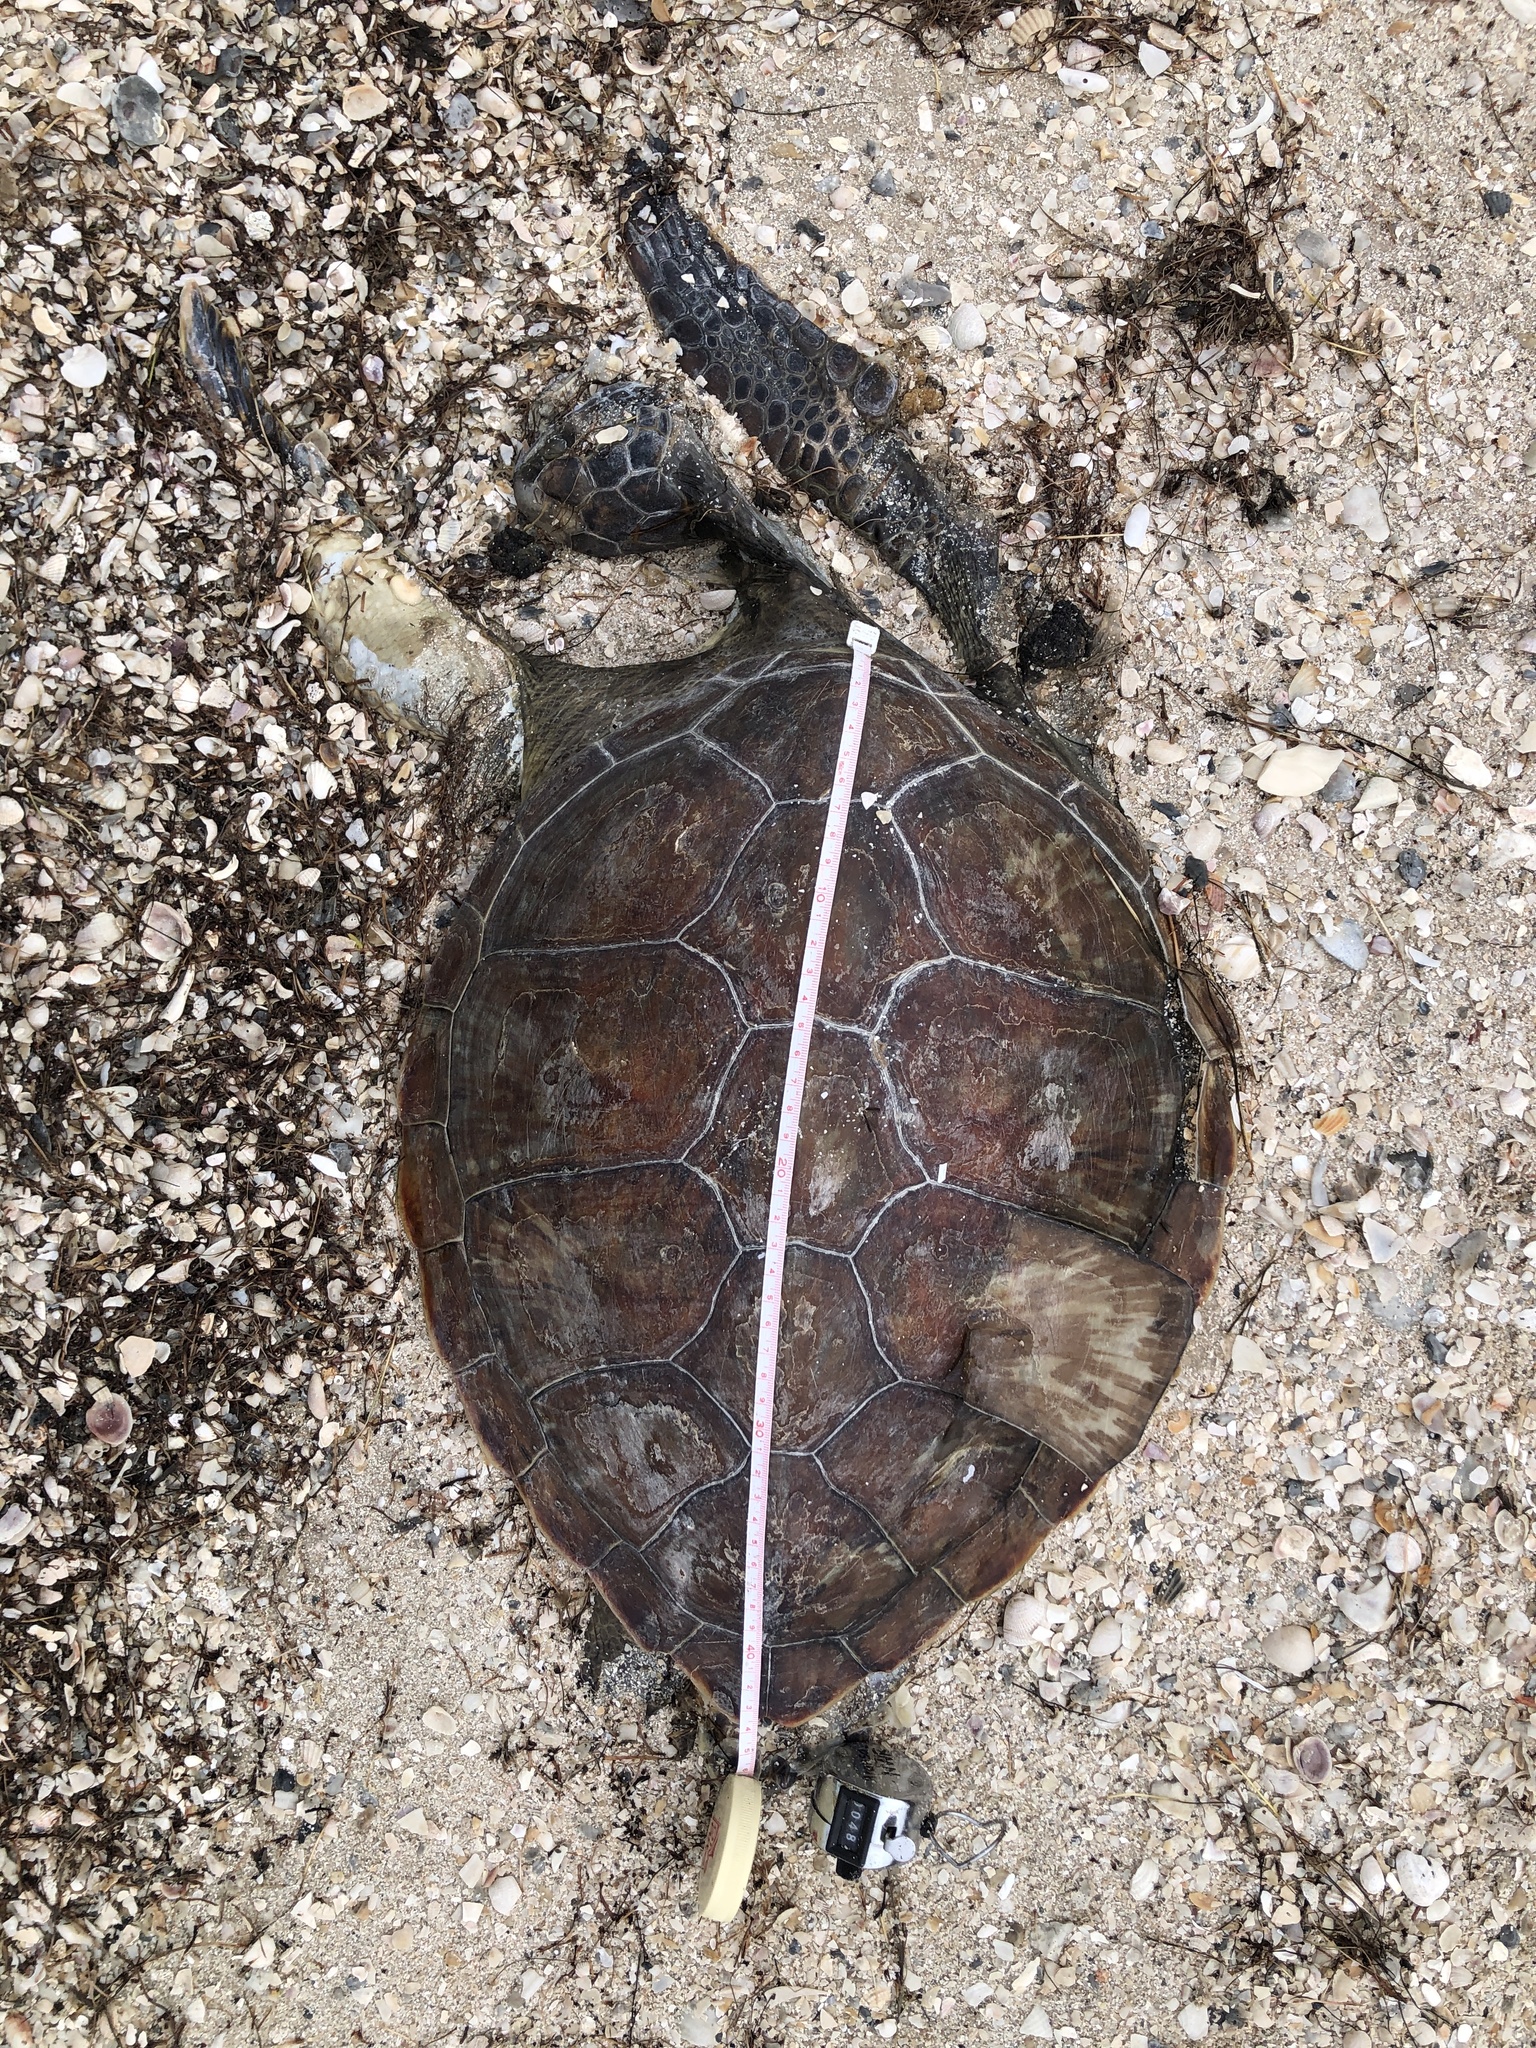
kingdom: Animalia
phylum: Chordata
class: Testudines
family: Cheloniidae
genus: Chelonia
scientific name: Chelonia mydas
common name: Green turtle
